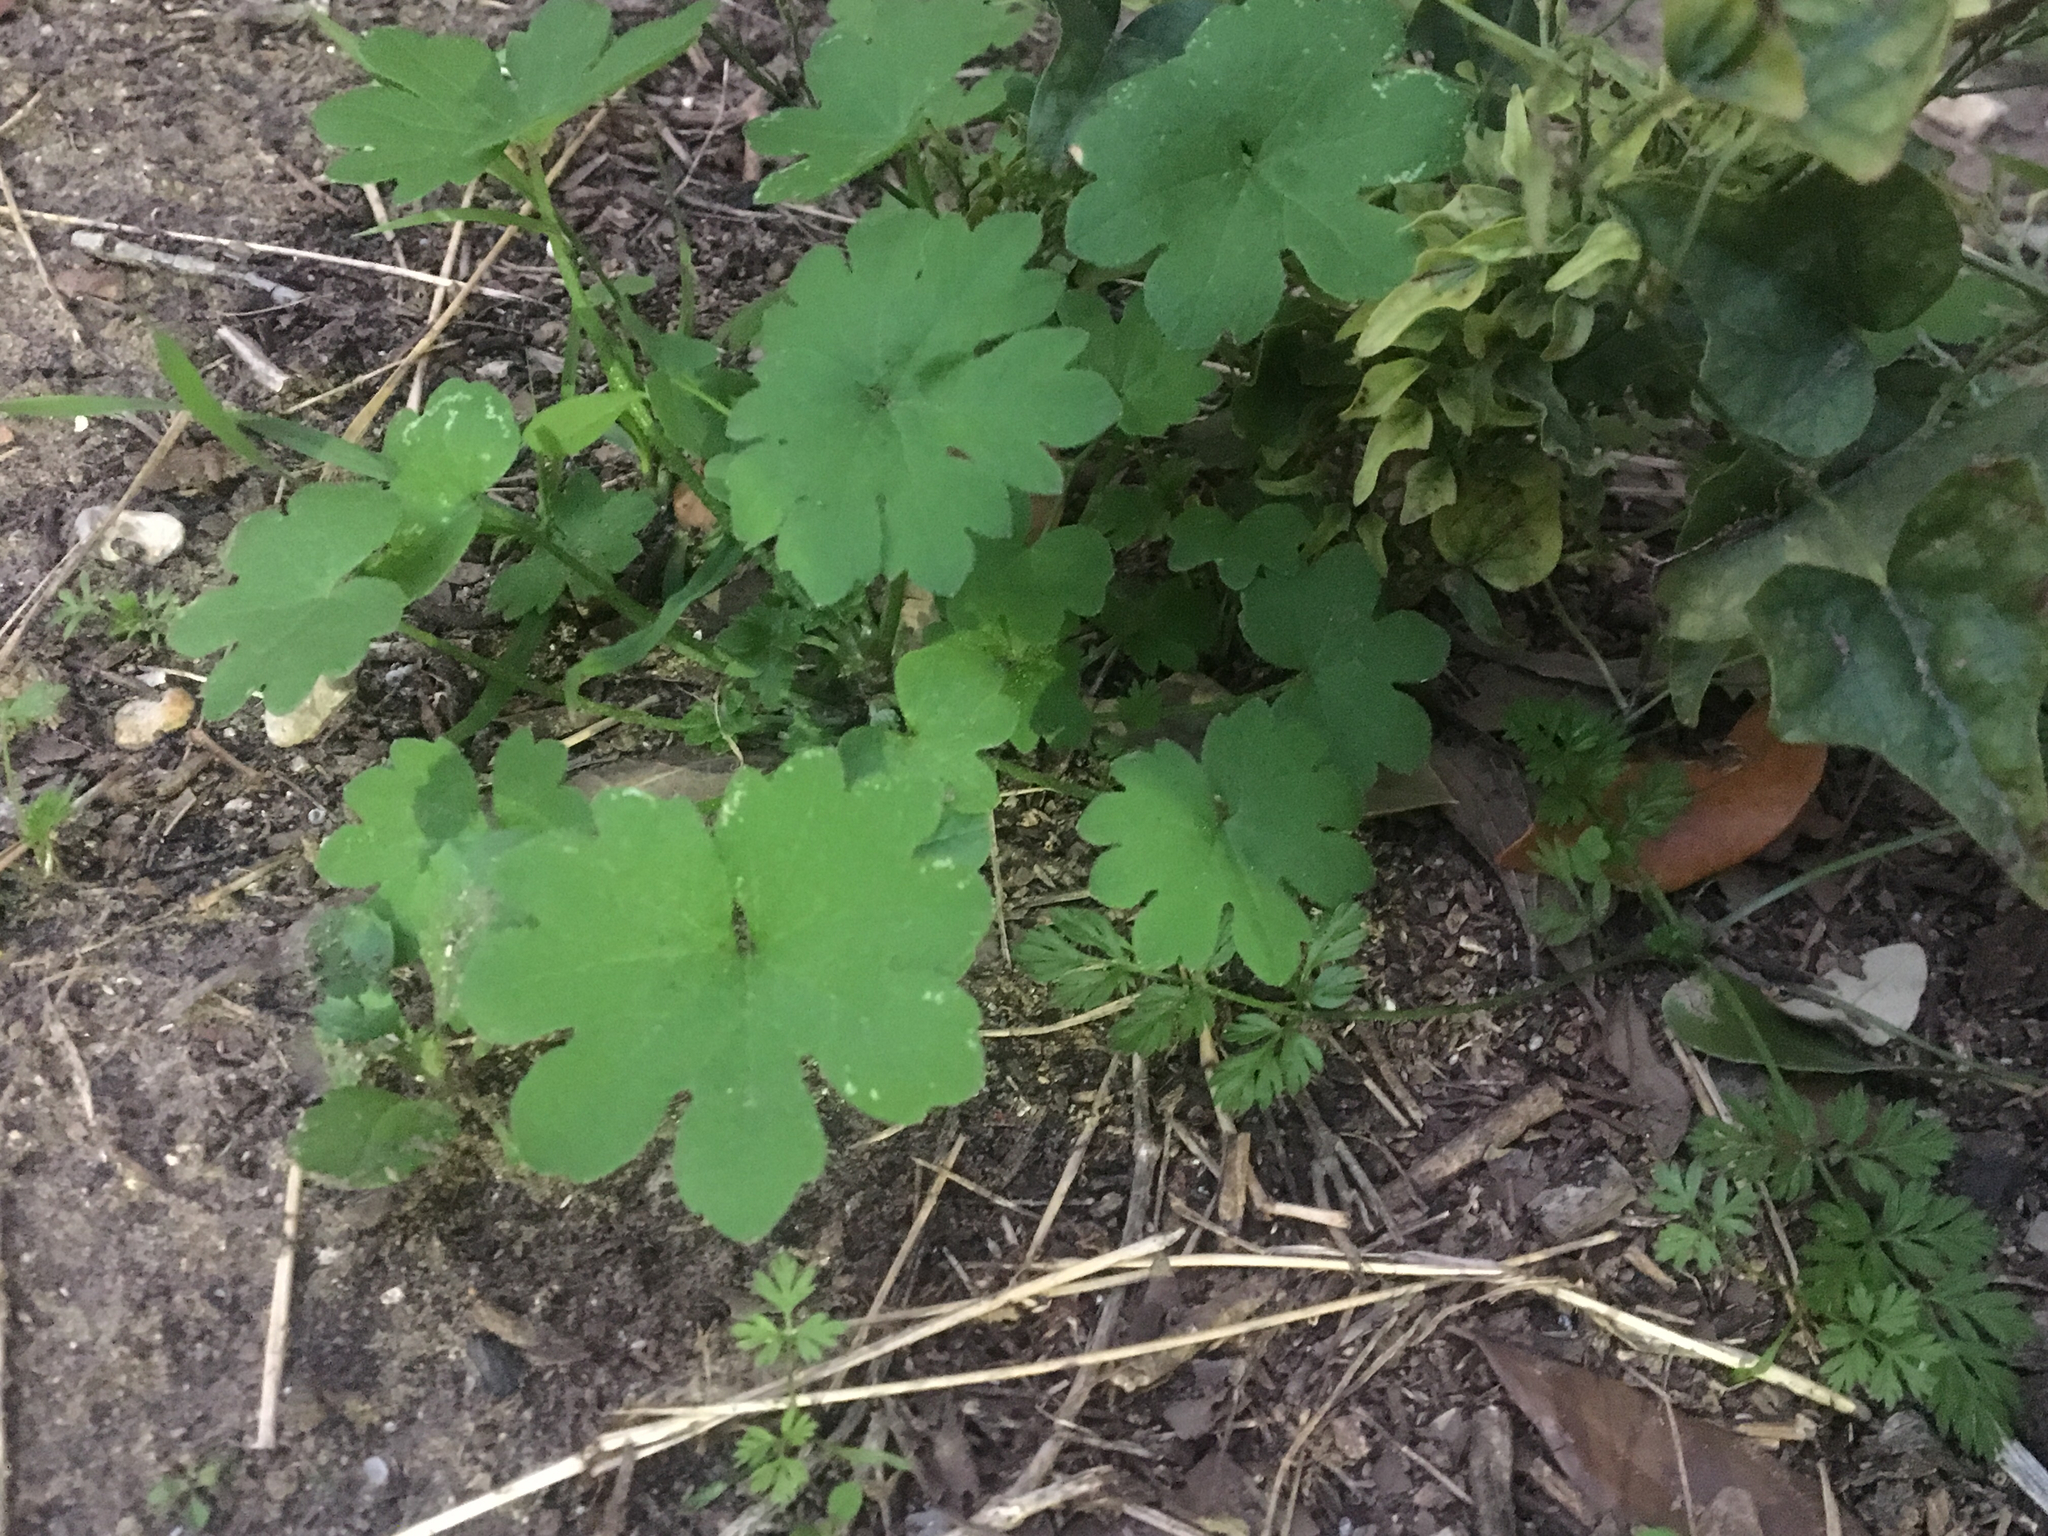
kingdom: Plantae
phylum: Tracheophyta
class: Magnoliopsida
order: Apiales
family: Apiaceae
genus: Bowlesia
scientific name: Bowlesia incana
